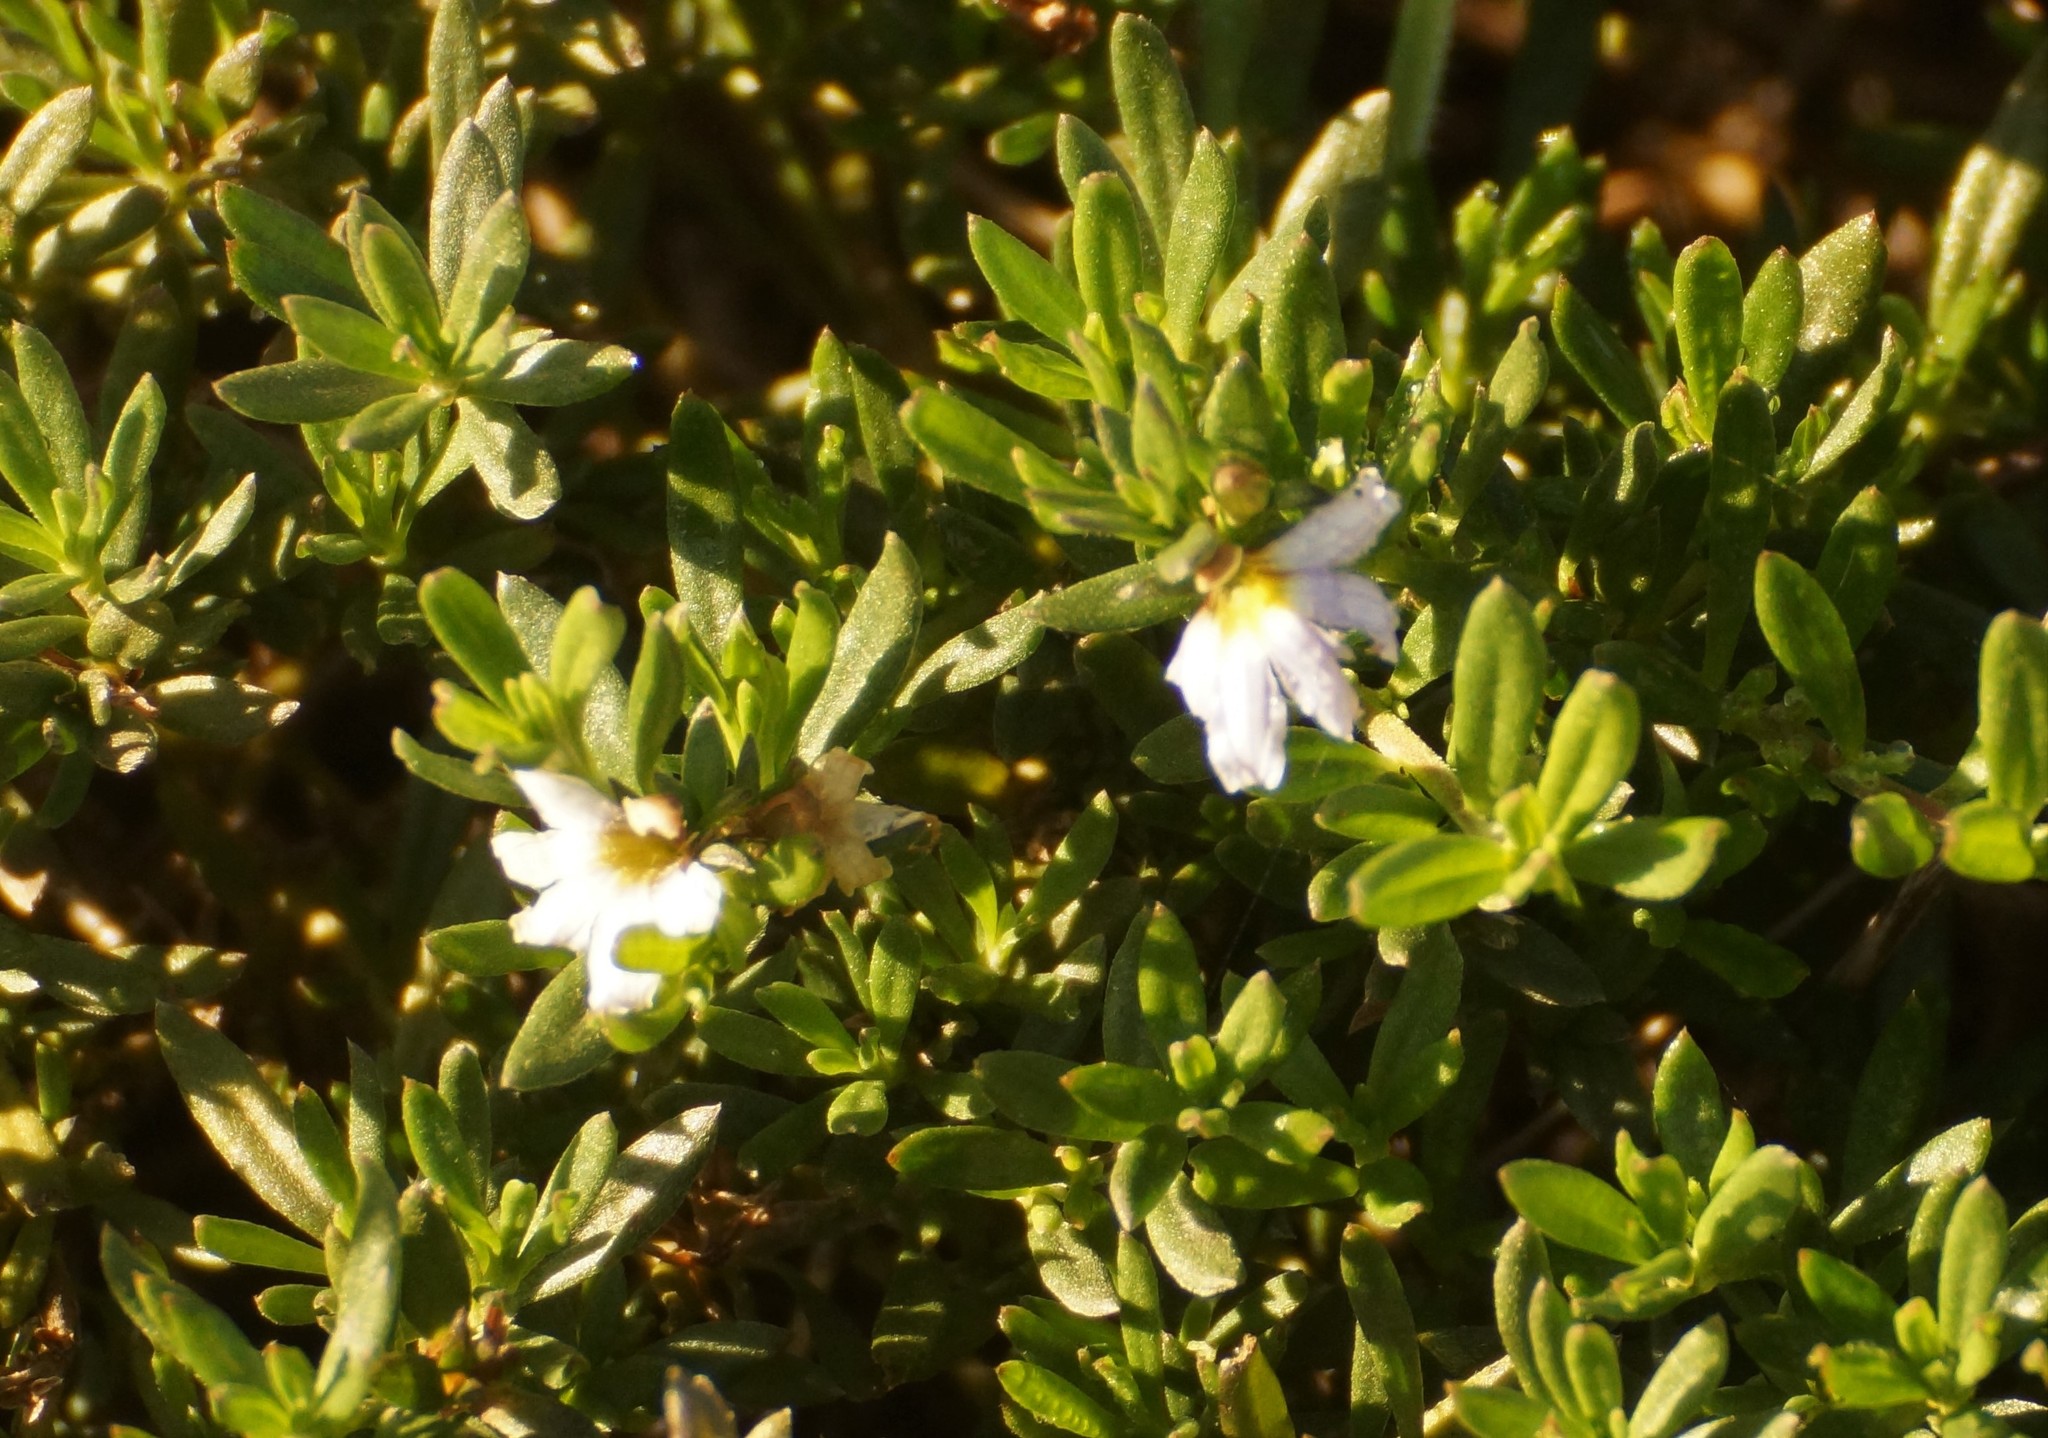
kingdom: Plantae
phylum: Tracheophyta
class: Magnoliopsida
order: Asterales
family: Goodeniaceae
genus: Scaevola
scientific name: Scaevola albida
